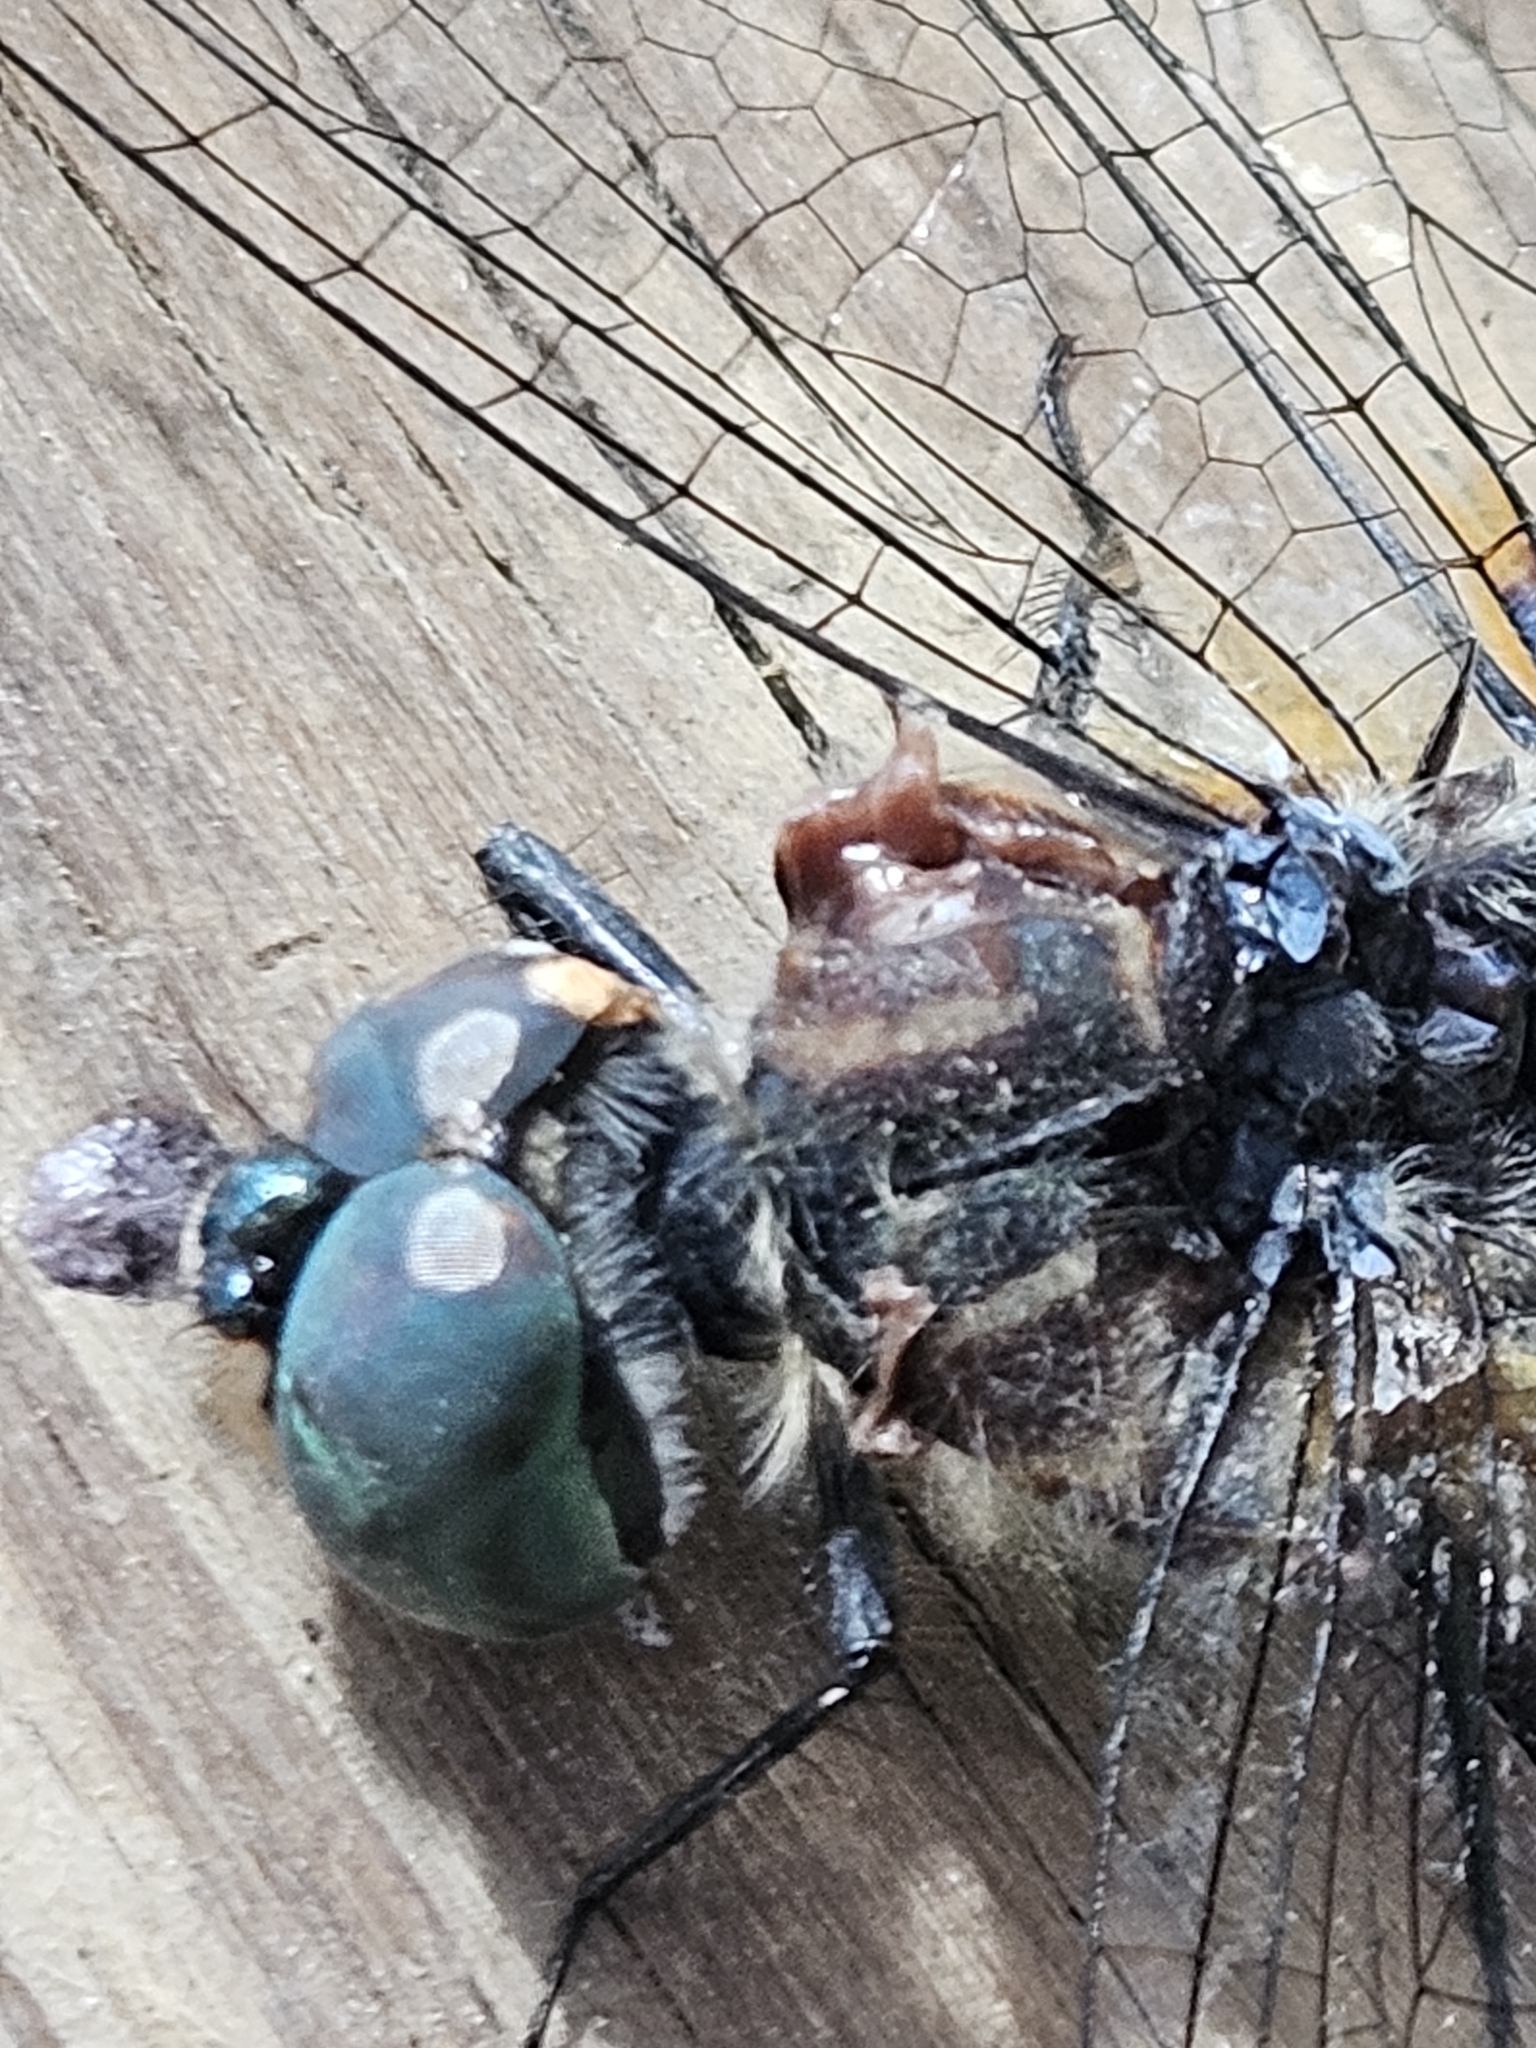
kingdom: Animalia
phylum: Arthropoda
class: Insecta
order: Odonata
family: Libellulidae
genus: Pachydiplax
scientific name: Pachydiplax longipennis
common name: Blue dasher
